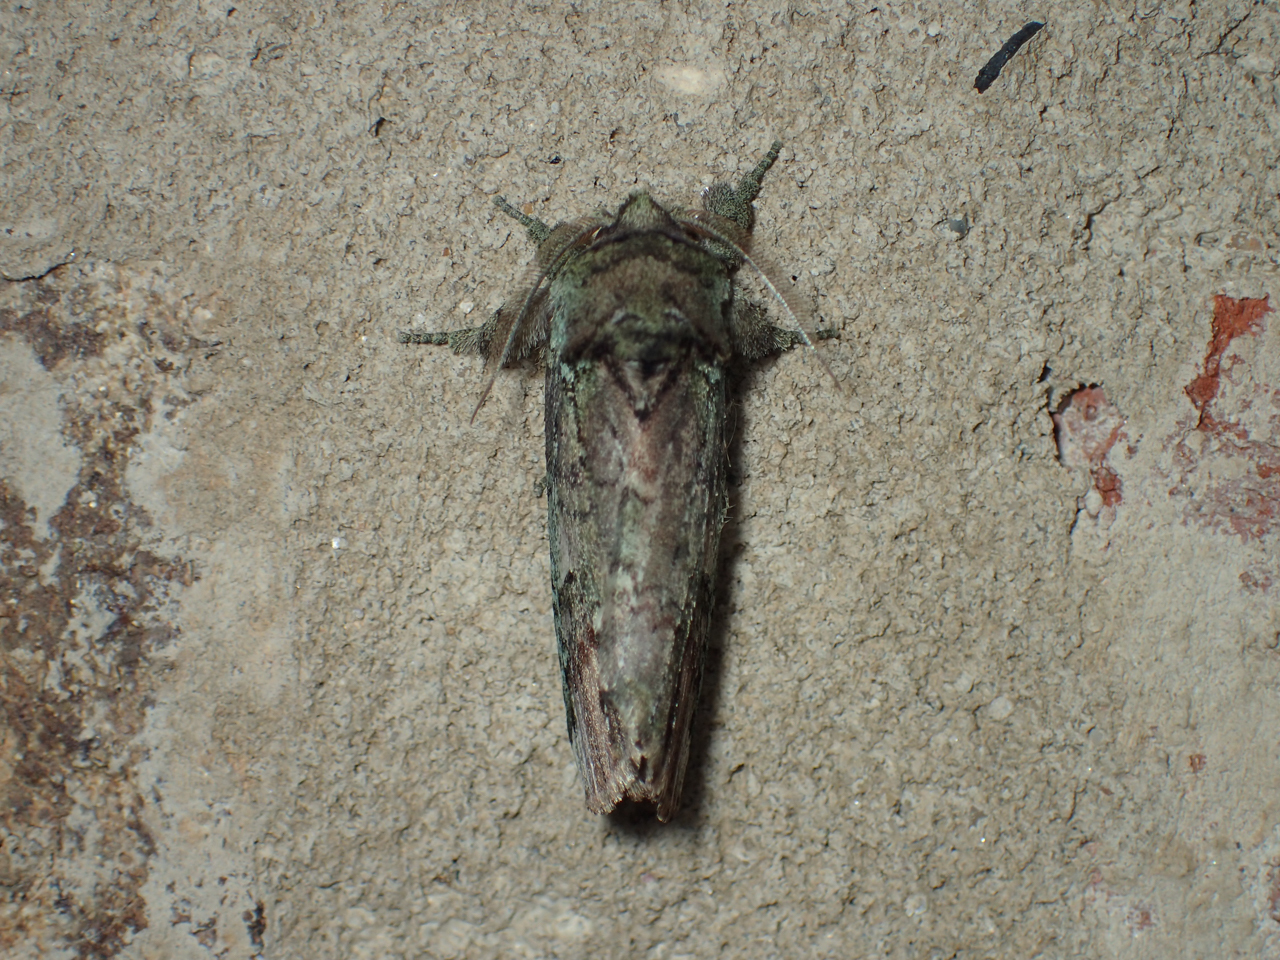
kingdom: Animalia
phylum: Arthropoda
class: Insecta
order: Lepidoptera
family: Notodontidae
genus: Schizura
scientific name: Schizura
